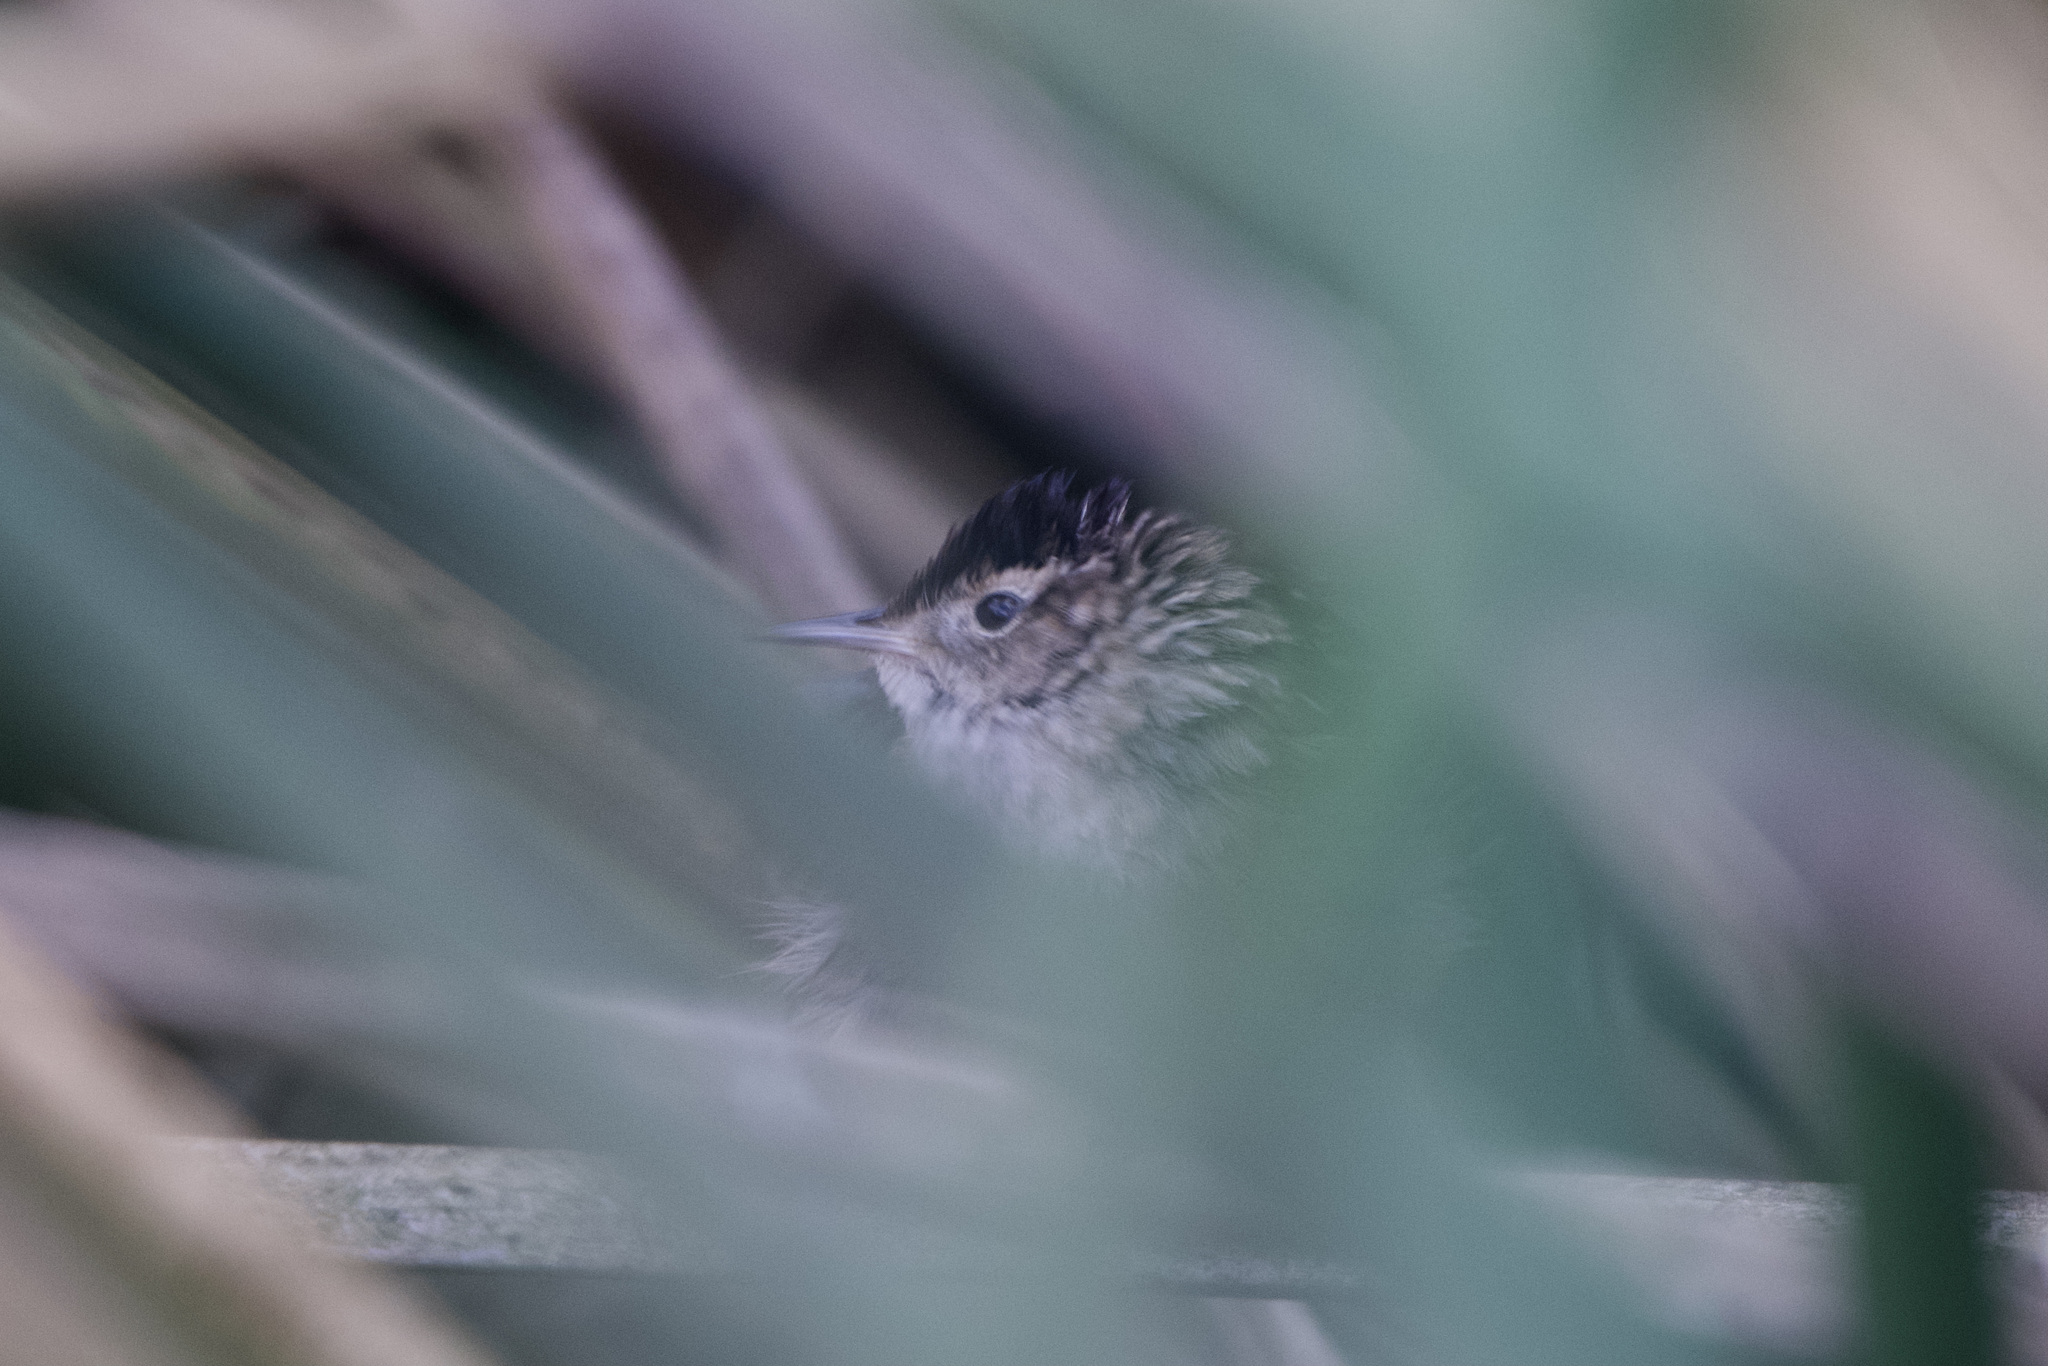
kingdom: Animalia
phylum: Chordata
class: Aves
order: Passeriformes
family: Troglodytidae
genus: Cistothorus
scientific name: Cistothorus palustris
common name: Marsh wren
